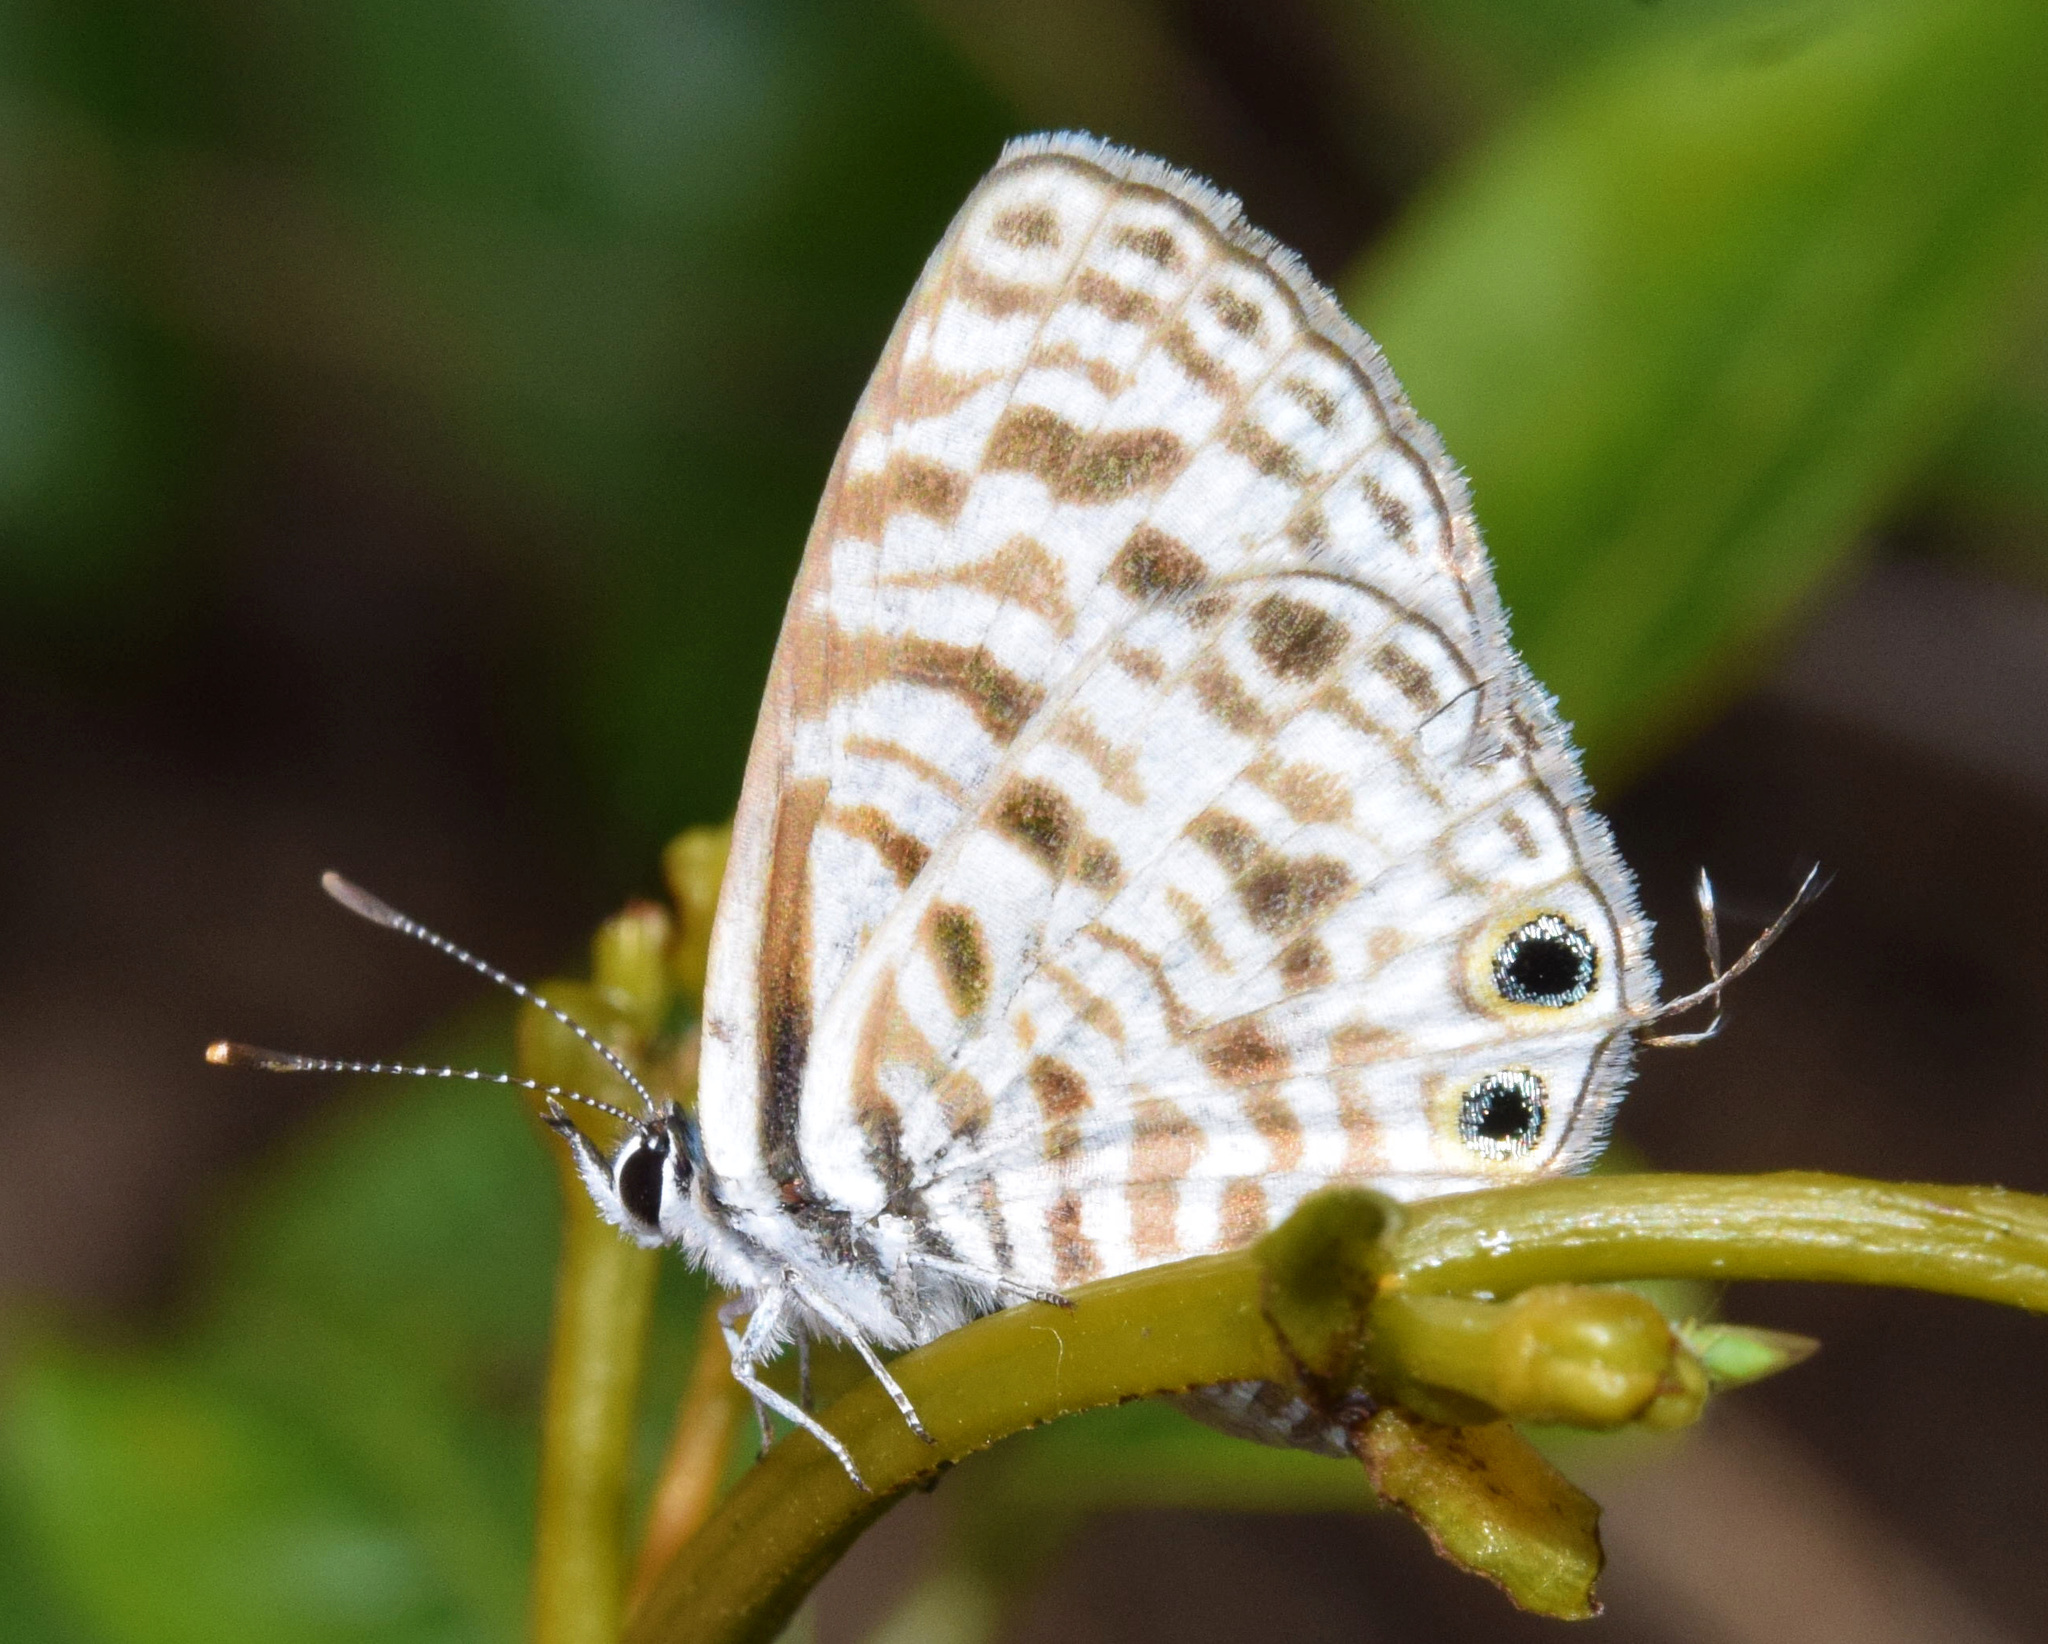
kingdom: Animalia
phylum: Arthropoda
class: Insecta
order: Lepidoptera
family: Lycaenidae
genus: Leptotes
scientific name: Leptotes
